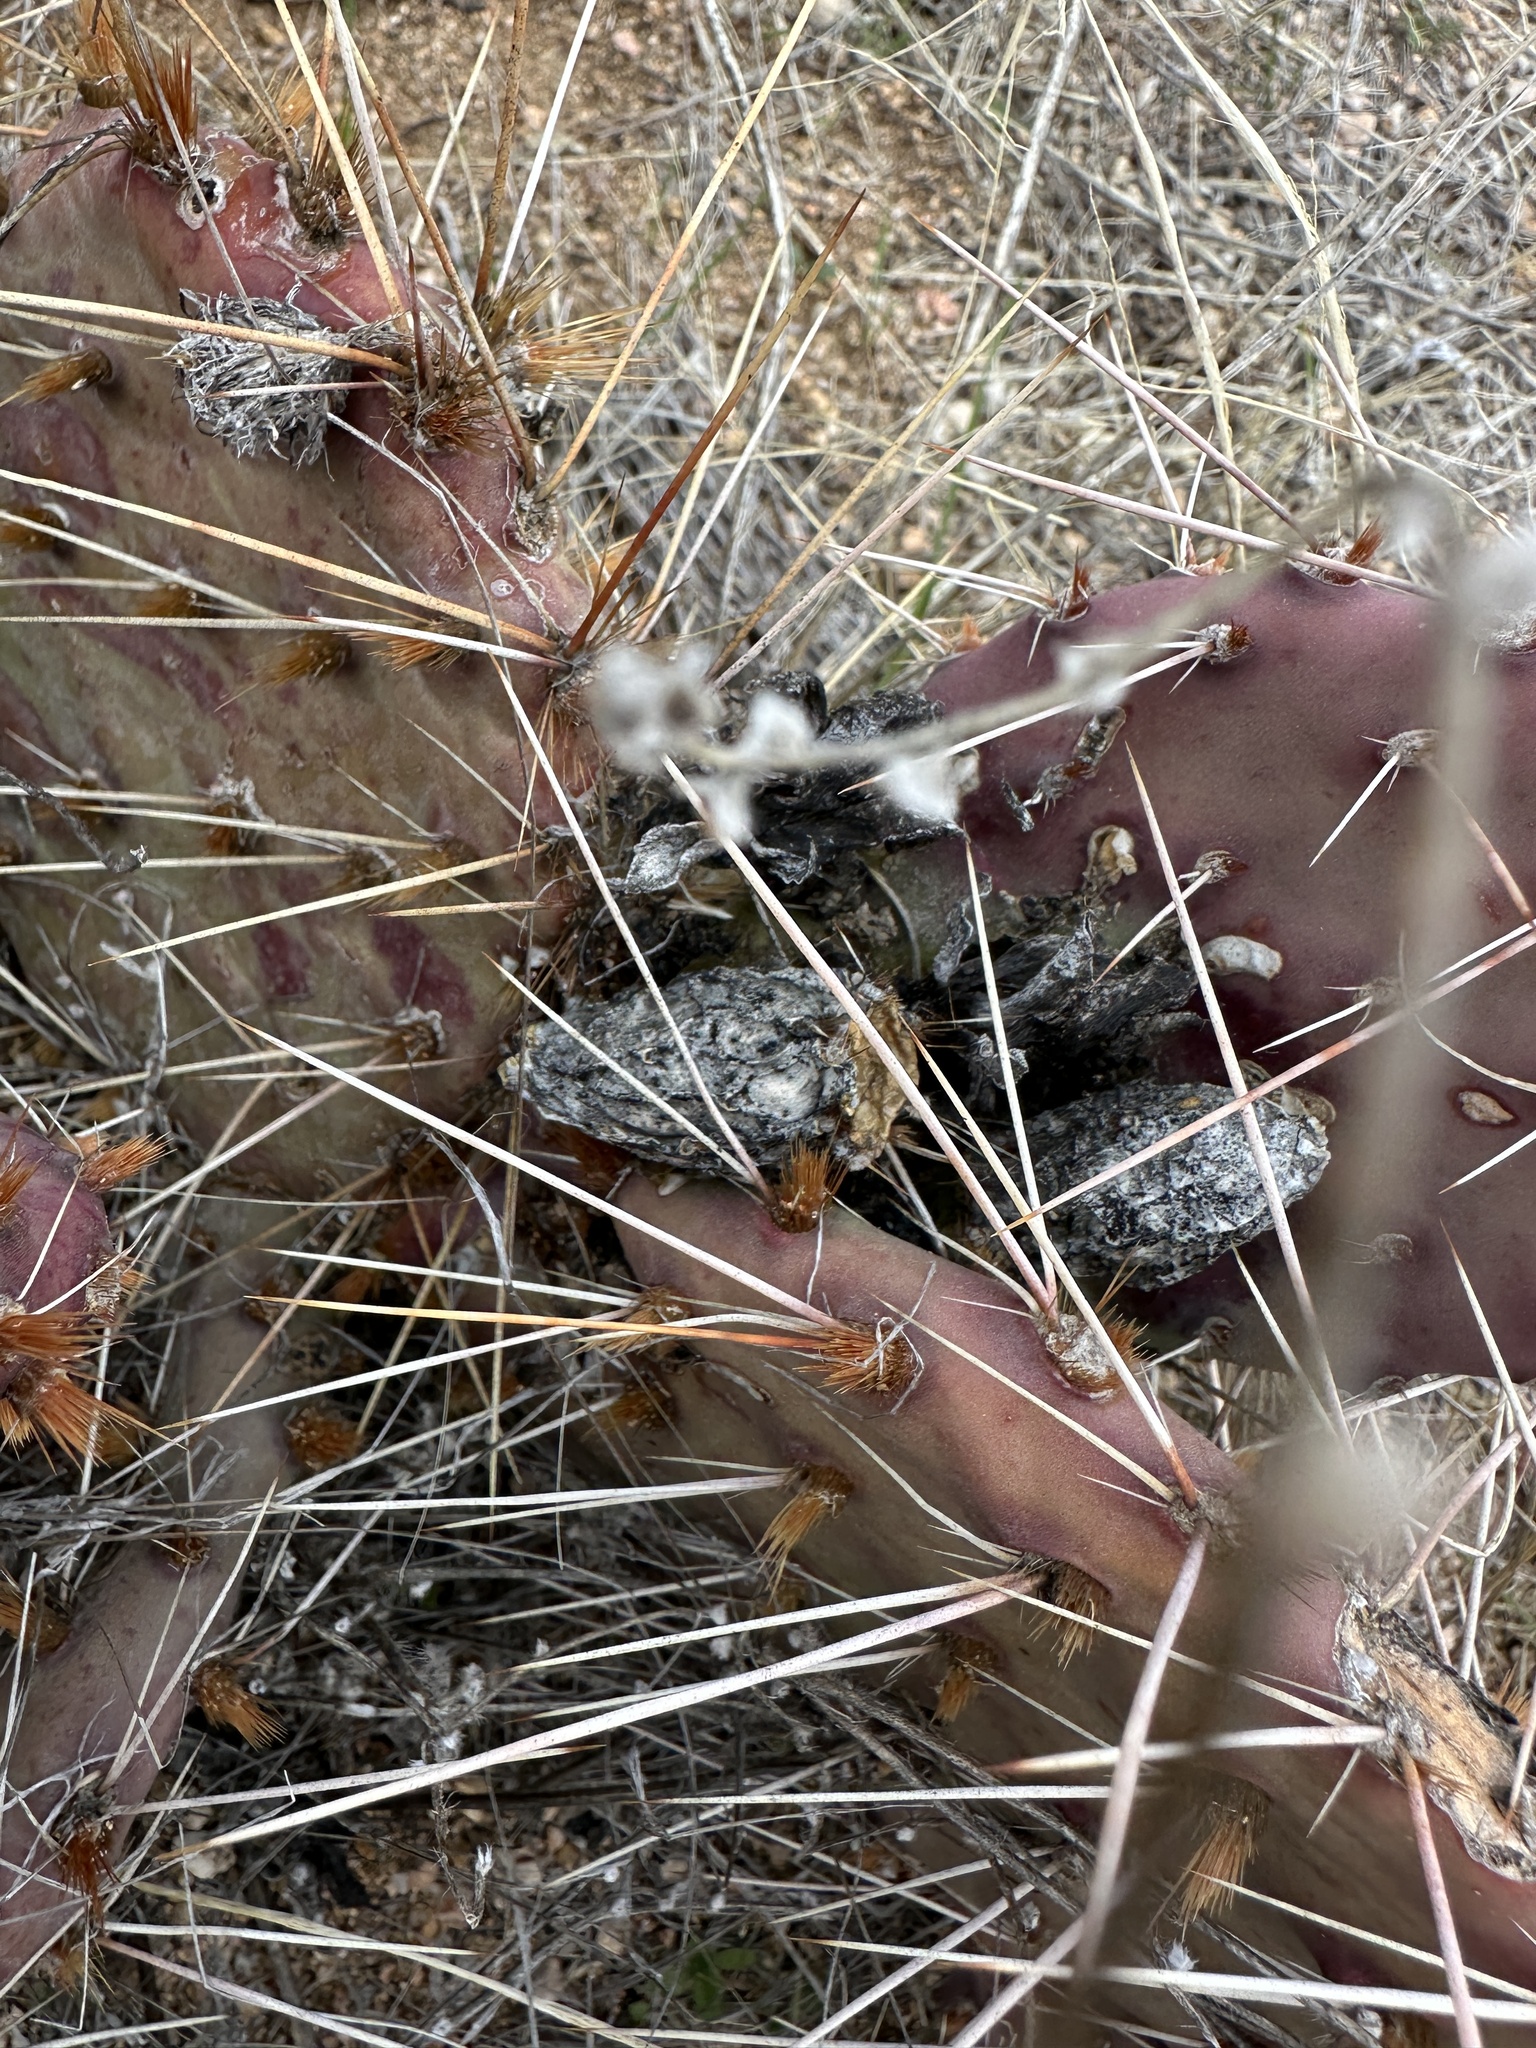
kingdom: Plantae
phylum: Tracheophyta
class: Magnoliopsida
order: Caryophyllales
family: Cactaceae
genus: Opuntia
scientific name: Opuntia phaeacantha
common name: New mexico prickly-pear
